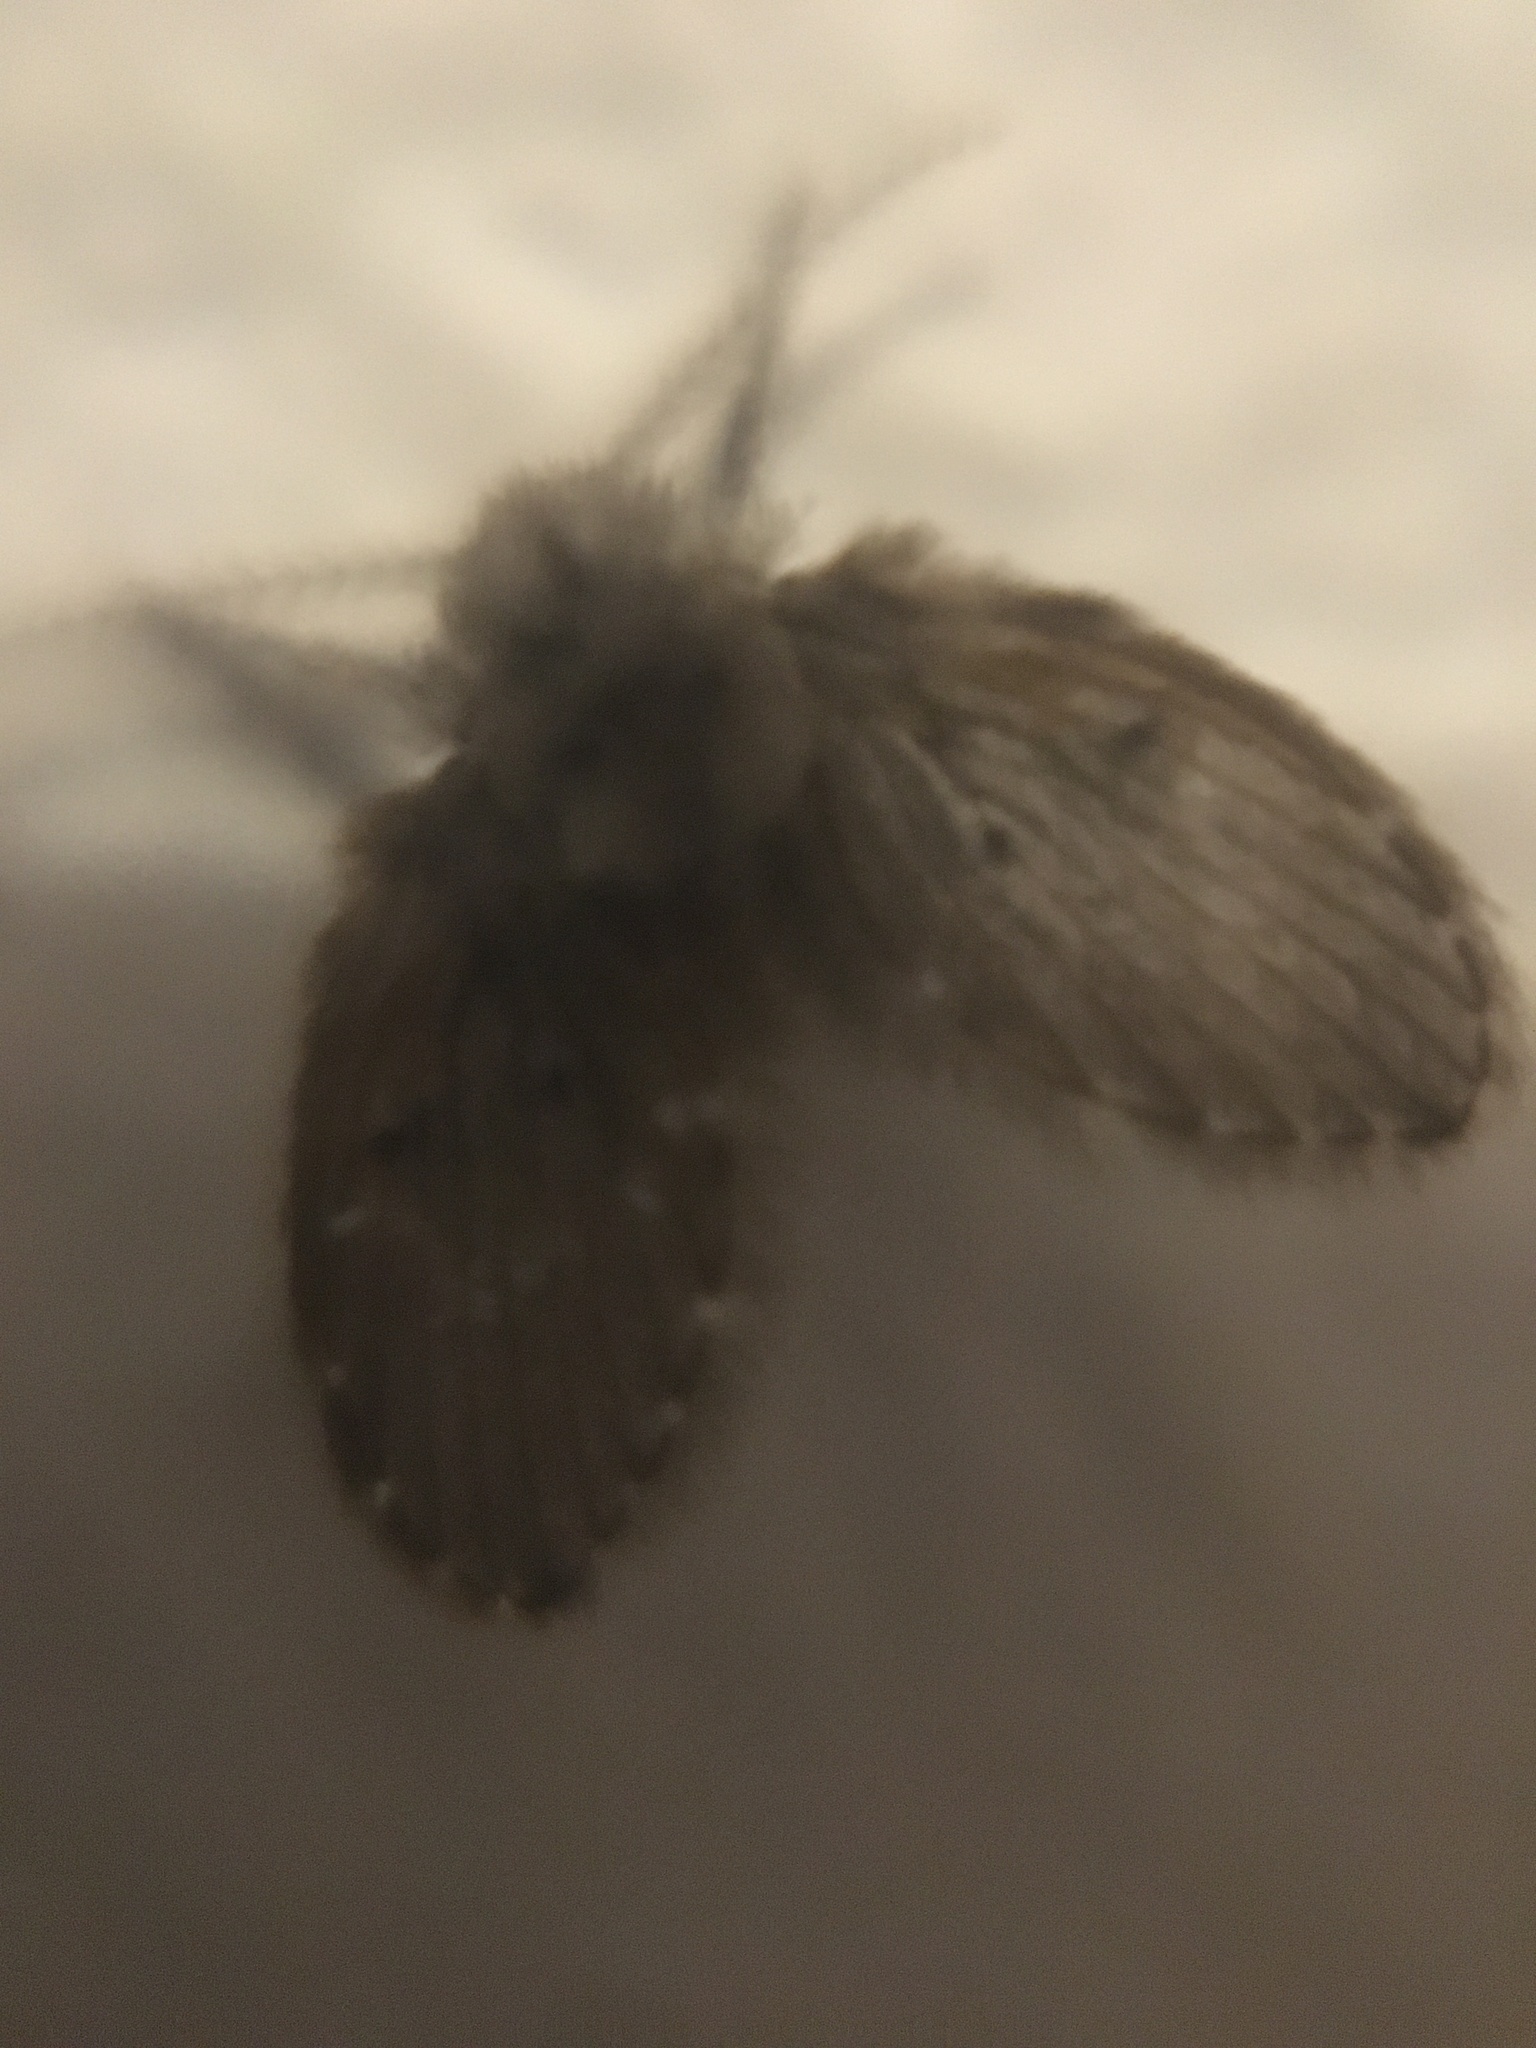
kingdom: Animalia
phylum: Arthropoda
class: Insecta
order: Diptera
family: Psychodidae
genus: Clogmia
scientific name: Clogmia albipunctatus
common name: White-spotted moth fly
